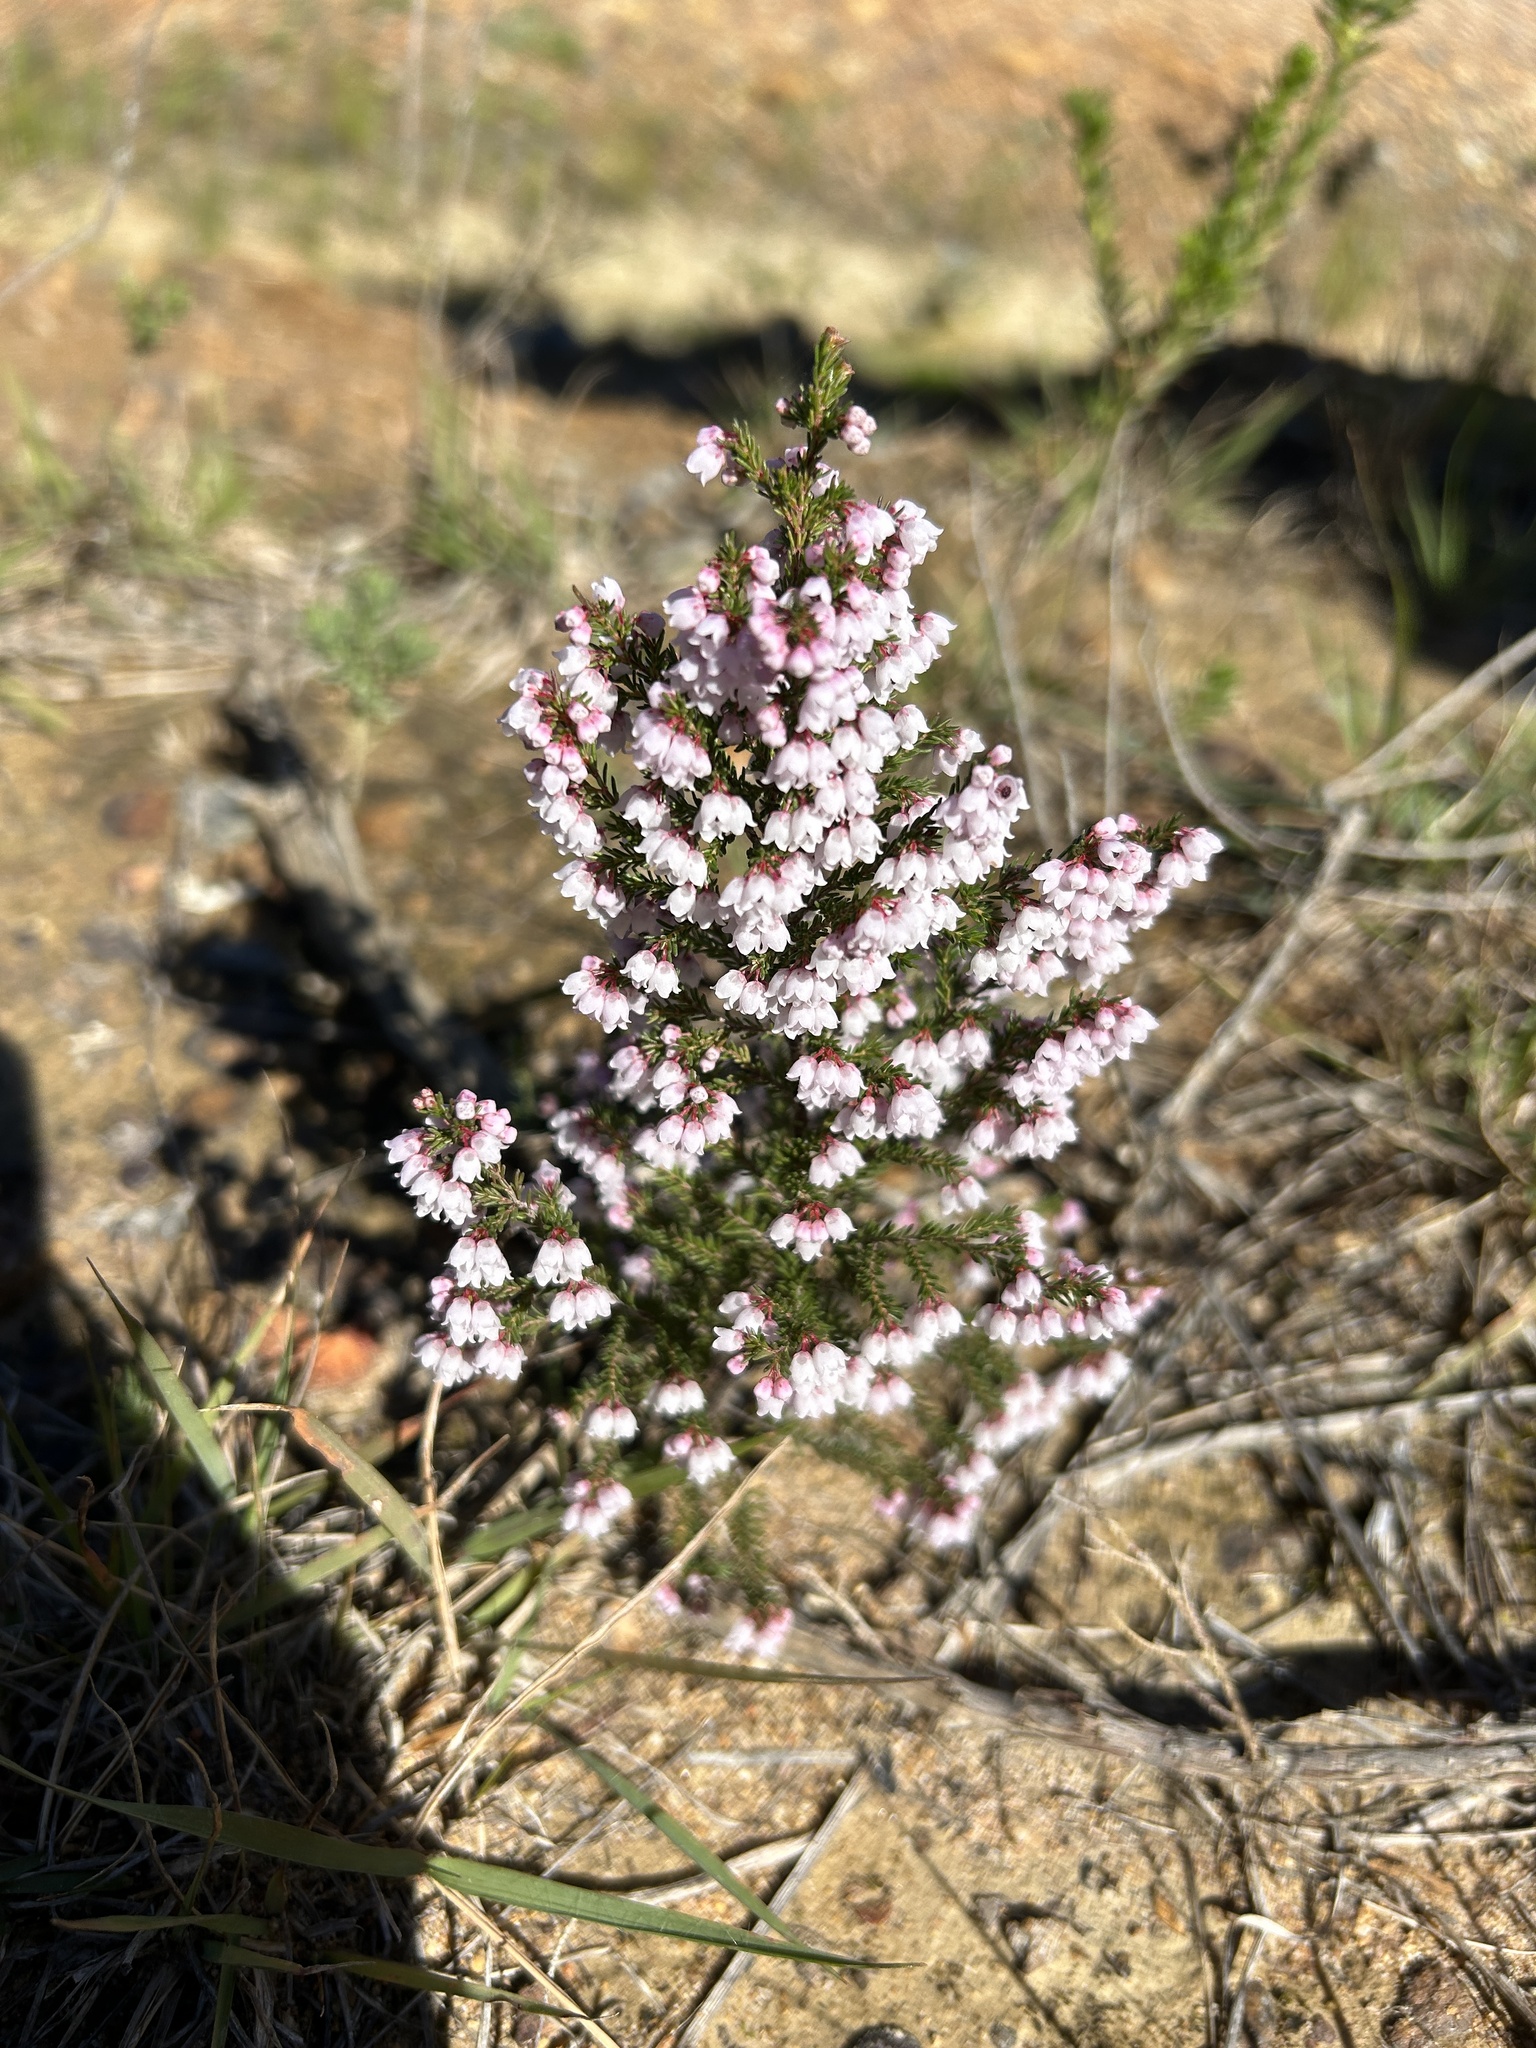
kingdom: Plantae
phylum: Tracheophyta
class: Magnoliopsida
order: Ericales
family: Ericaceae
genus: Erica
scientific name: Erica quadrangularis
